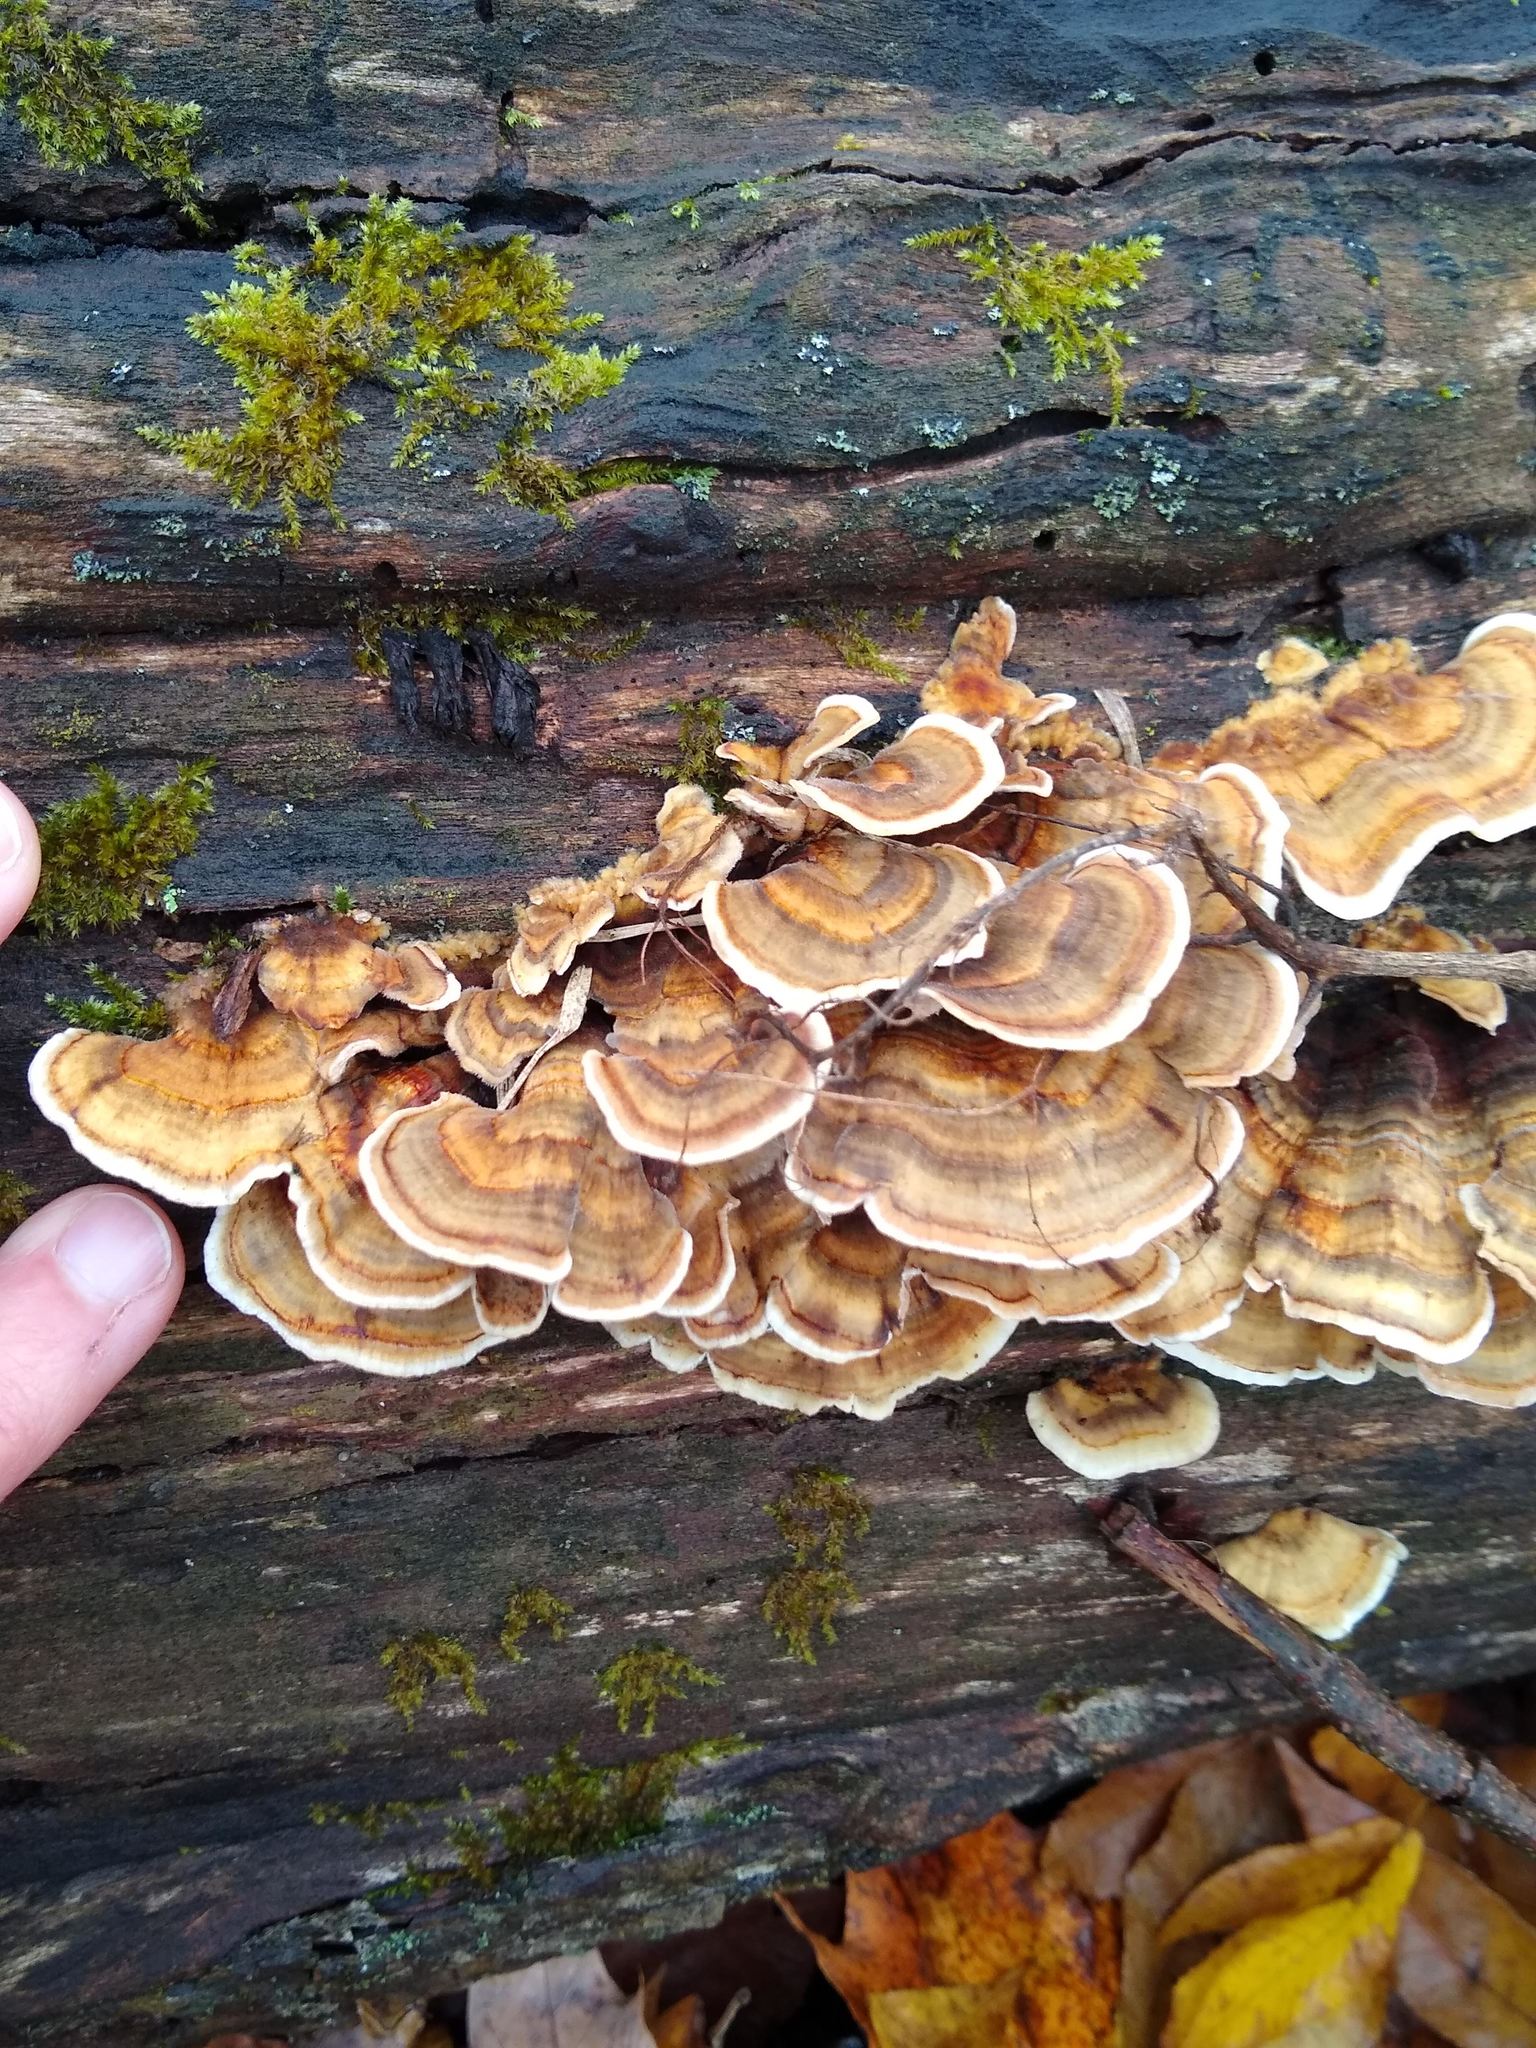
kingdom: Fungi
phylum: Basidiomycota
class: Agaricomycetes
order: Polyporales
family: Polyporaceae
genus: Trametes
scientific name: Trametes versicolor
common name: Turkeytail
